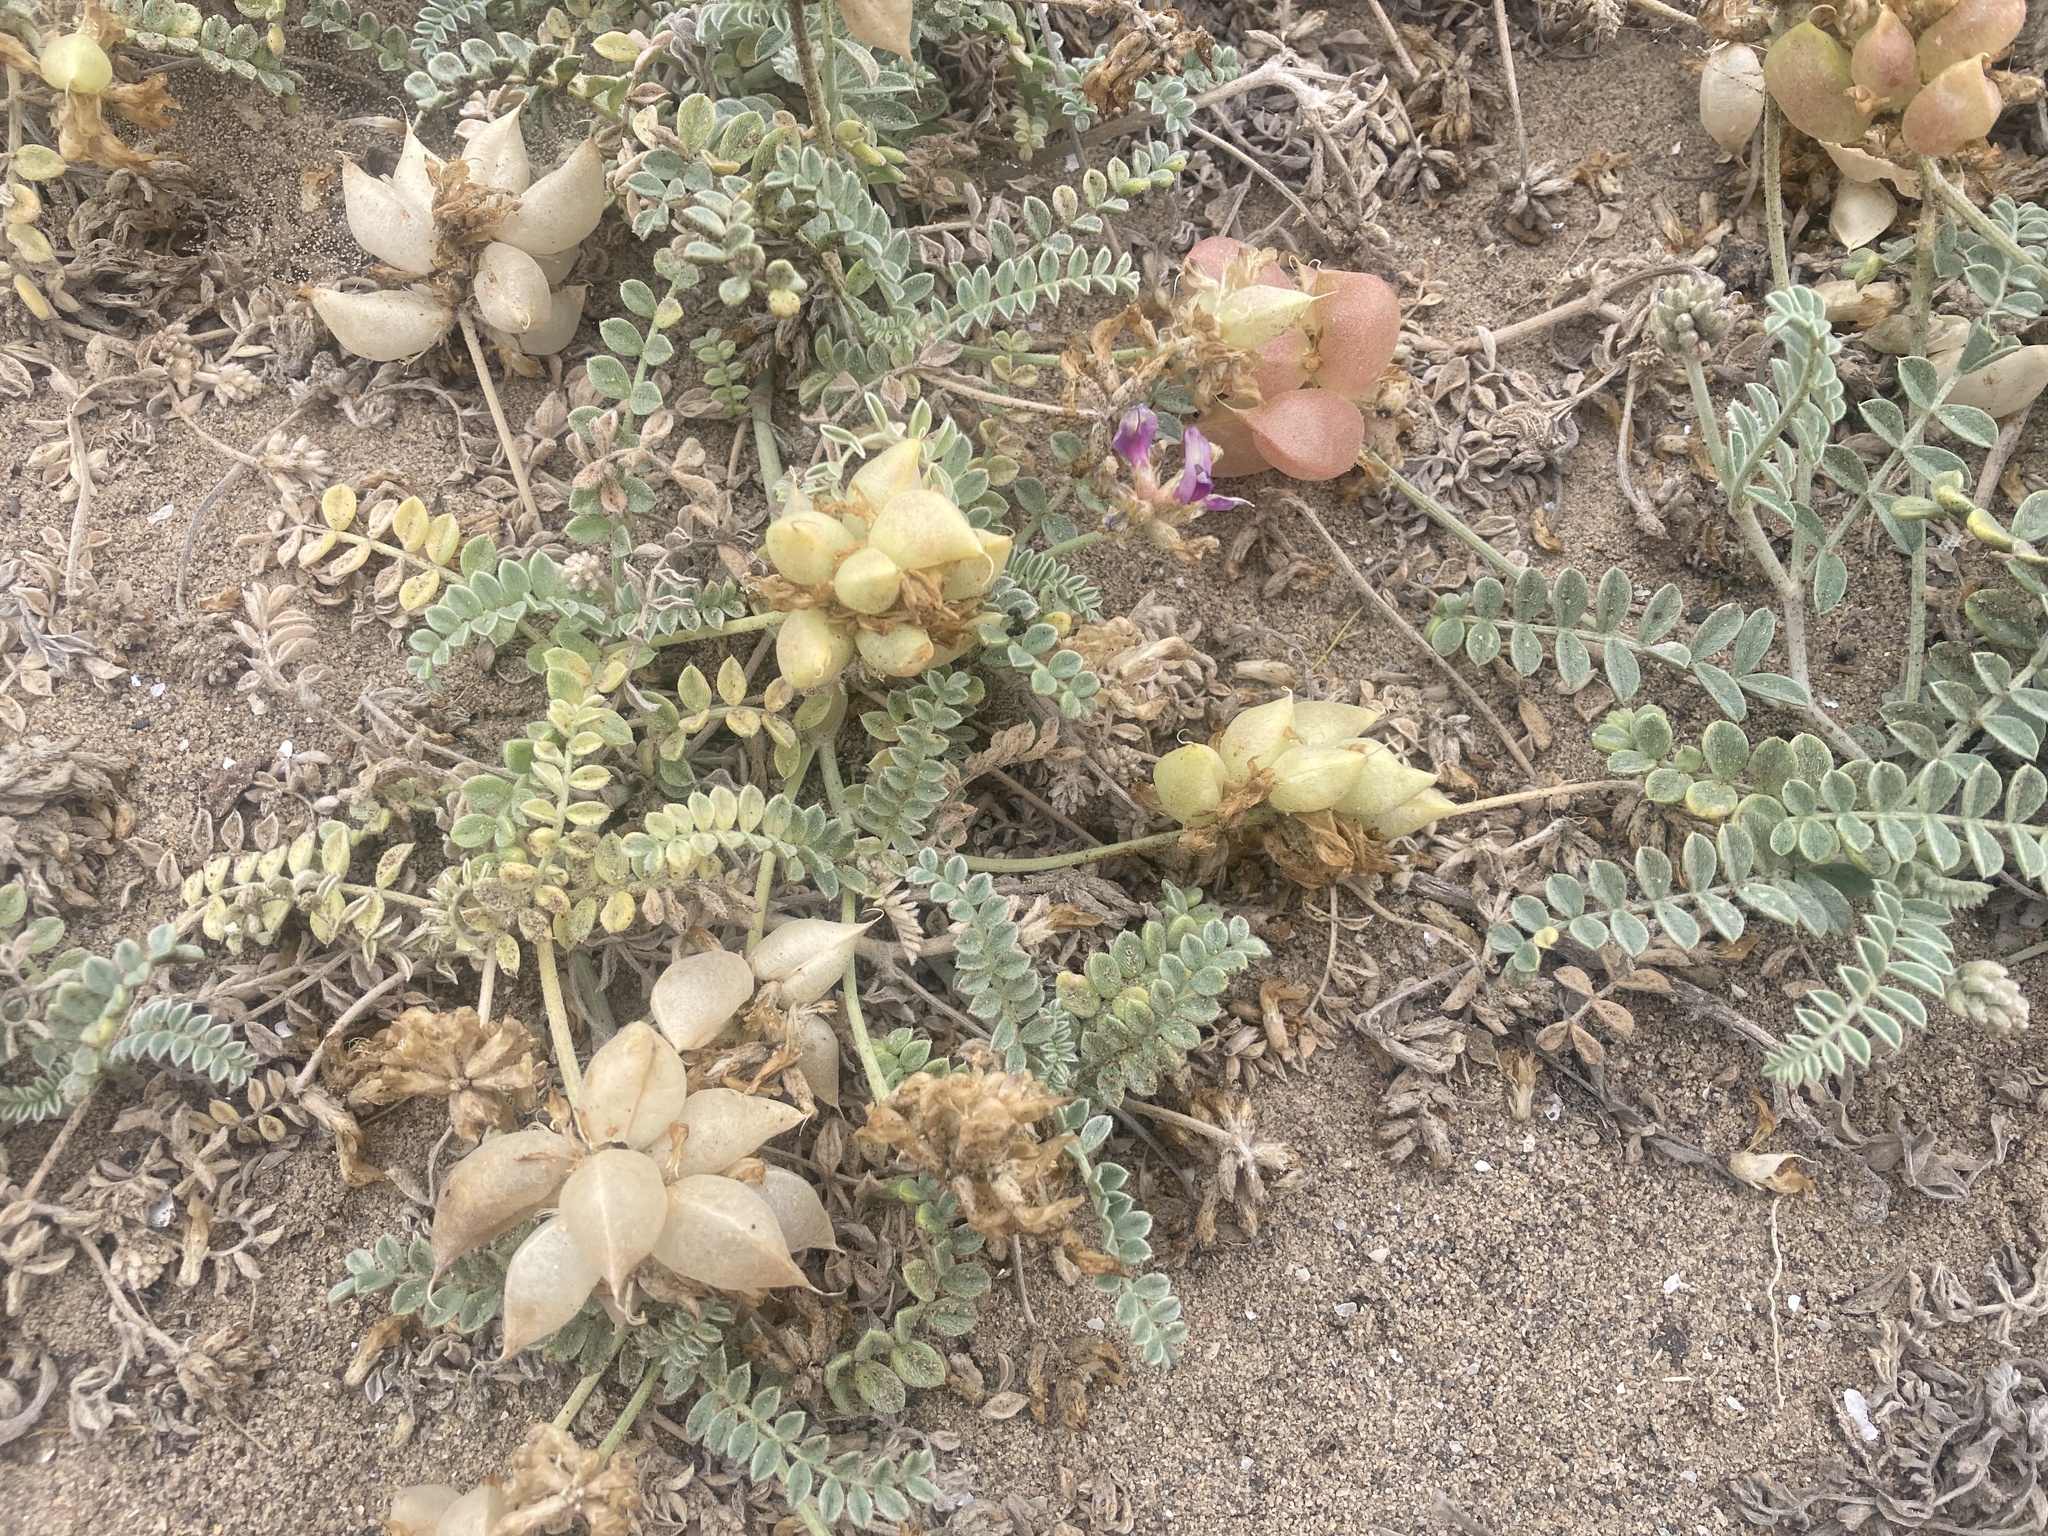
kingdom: Plantae
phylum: Tracheophyta
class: Magnoliopsida
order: Fabales
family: Fabaceae
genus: Astragalus
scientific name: Astragalus harbisonii
